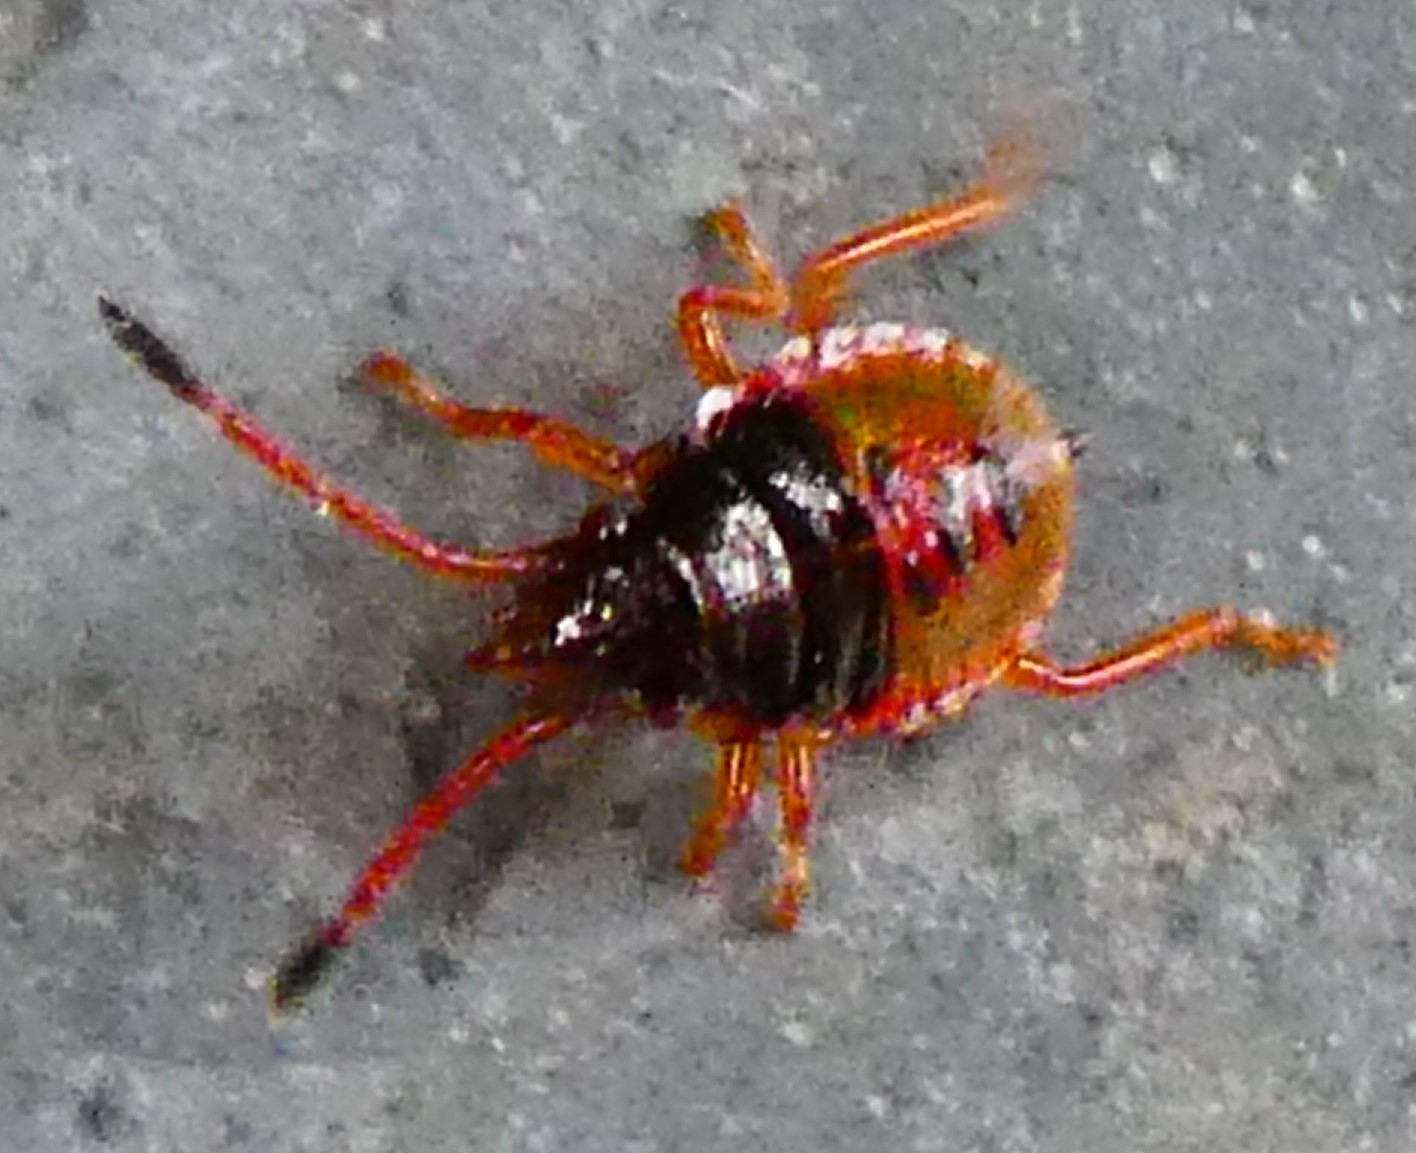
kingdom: Animalia
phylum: Arthropoda
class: Insecta
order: Hemiptera
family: Acanthosomatidae
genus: Acanthosoma
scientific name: Acanthosoma haemorrhoidale
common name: Hawthorn shieldbug
